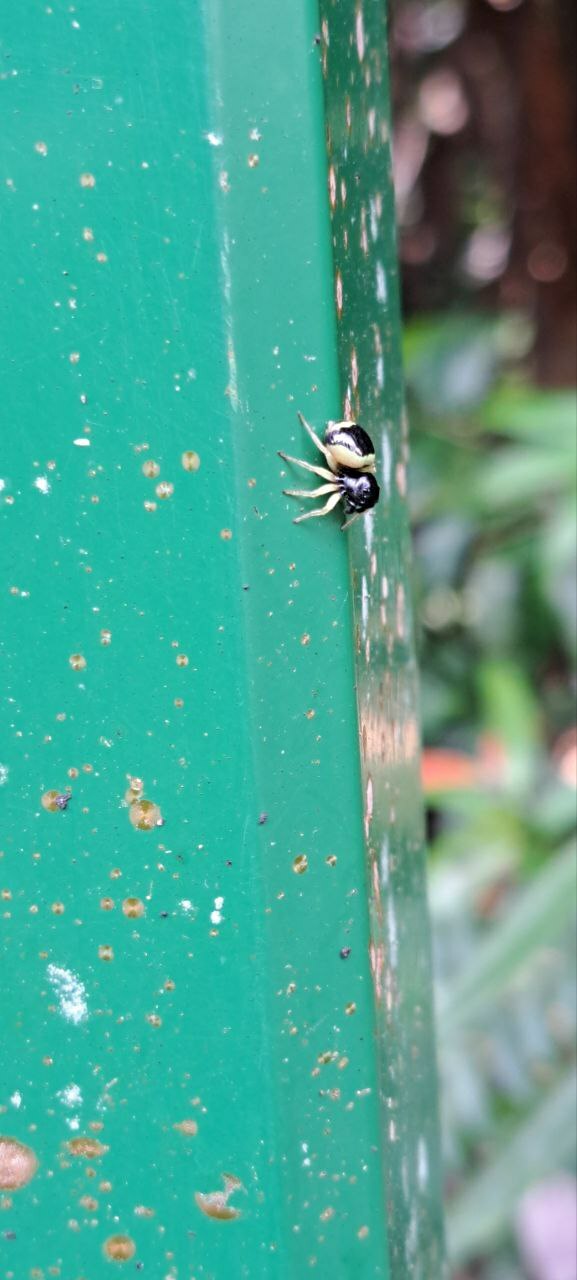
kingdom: Animalia
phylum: Arthropoda
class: Arachnida
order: Araneae
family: Salticidae
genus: Pystira
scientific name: Pystira ephippigera
